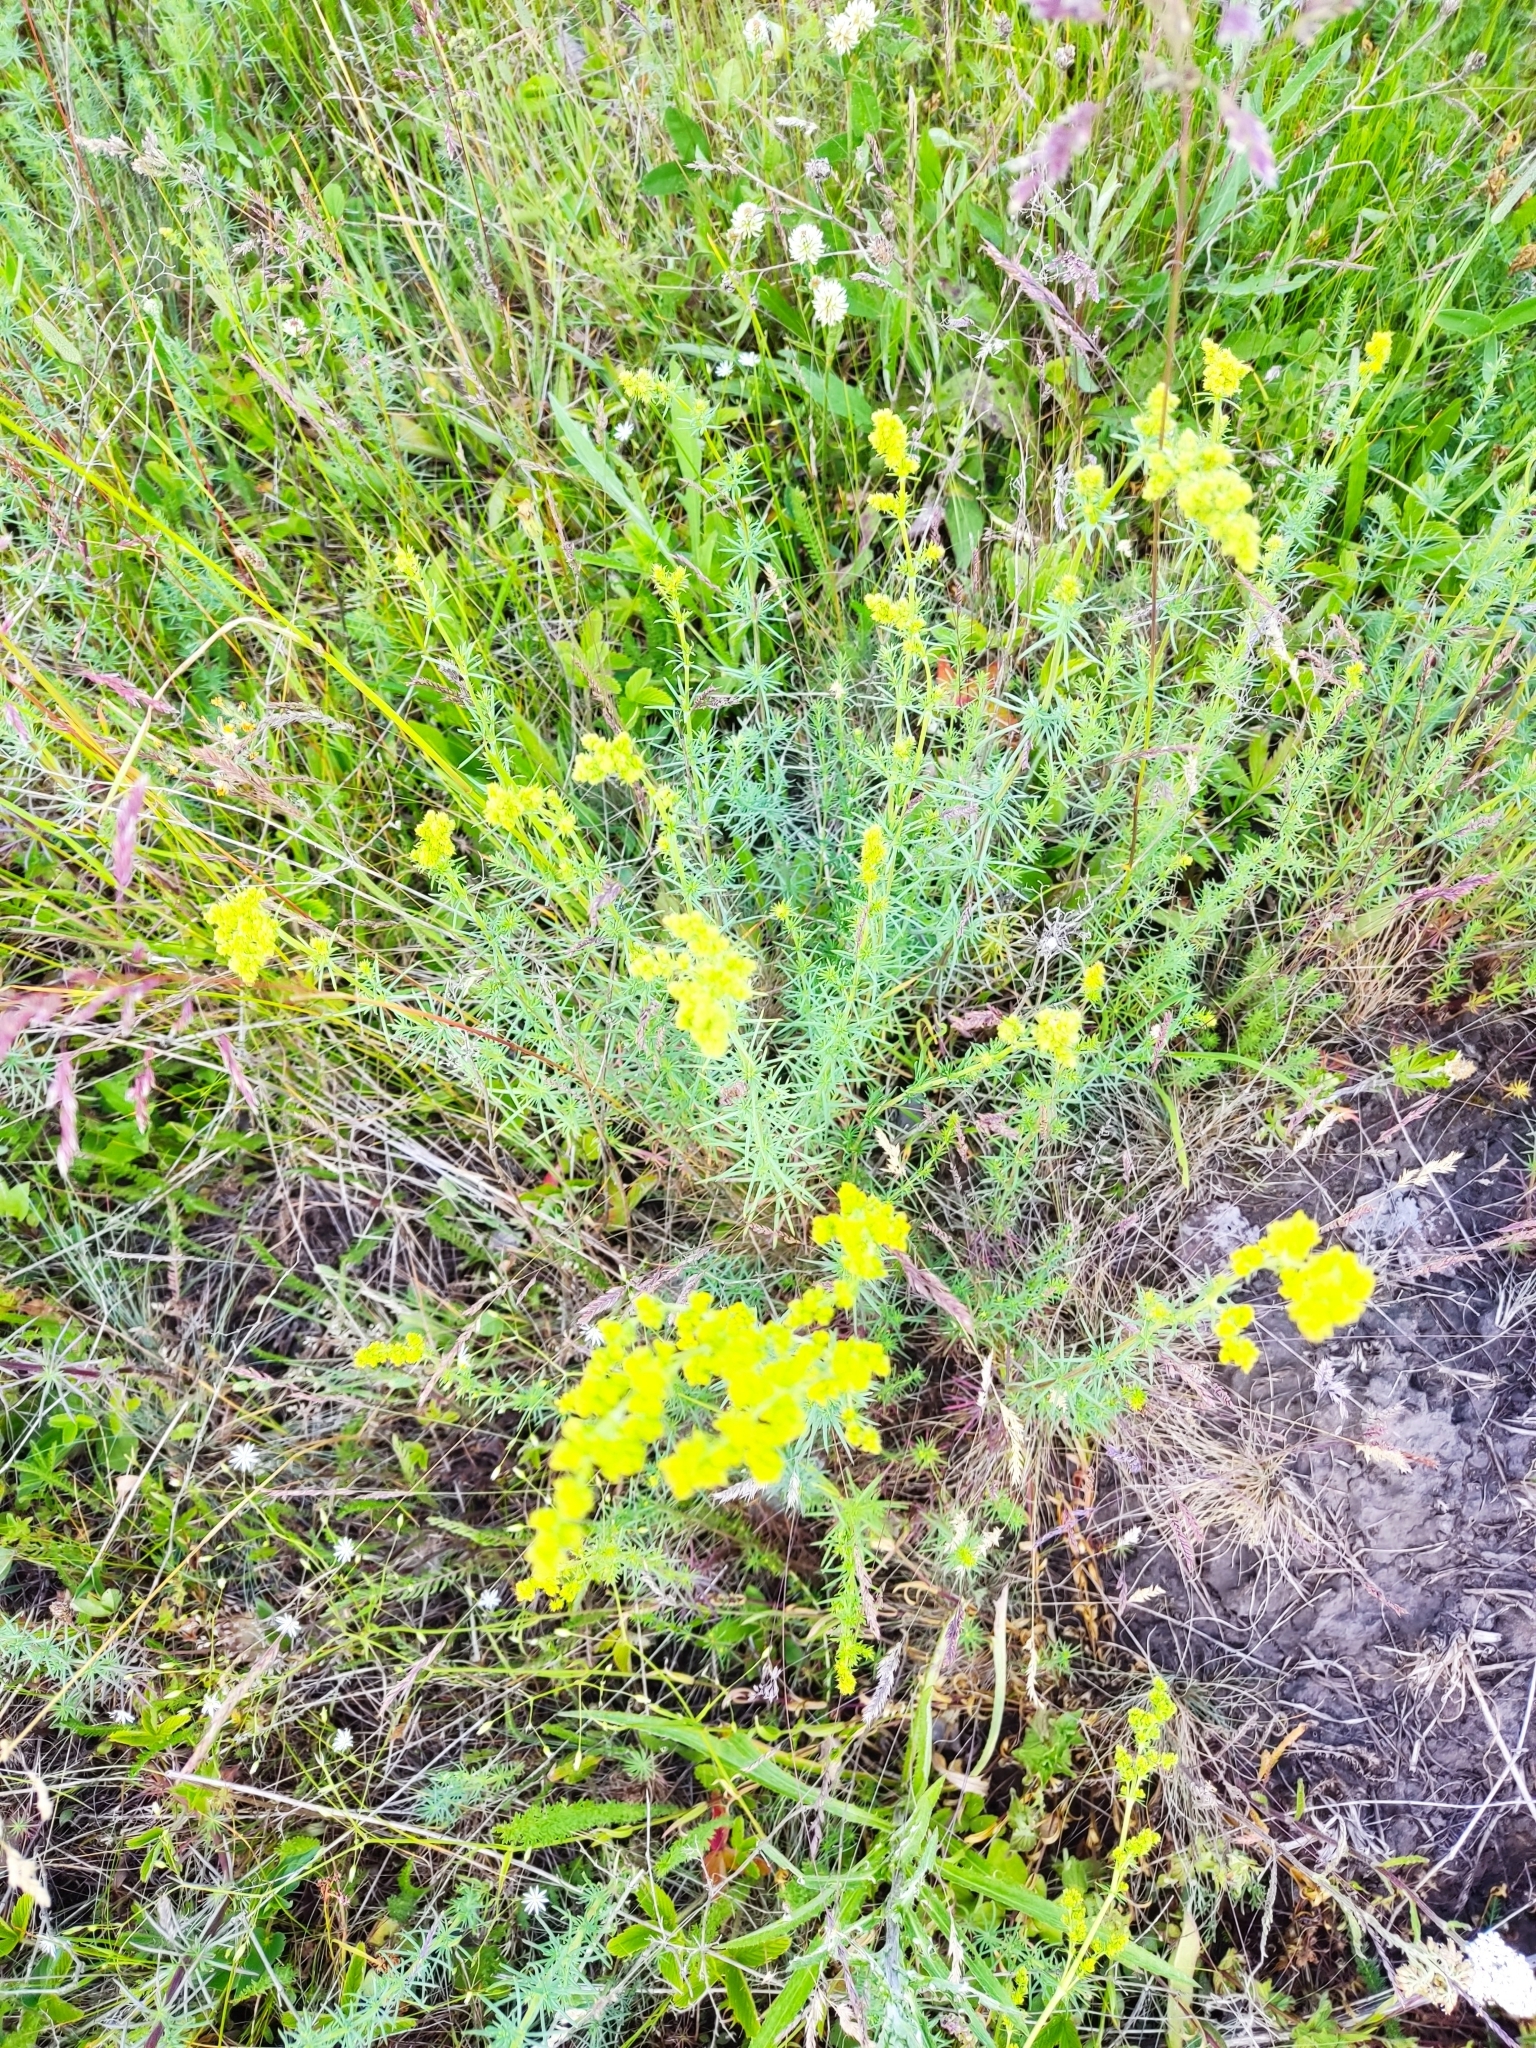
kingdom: Plantae
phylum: Tracheophyta
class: Magnoliopsida
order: Gentianales
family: Rubiaceae
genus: Galium
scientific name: Galium verum
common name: Lady's bedstraw
